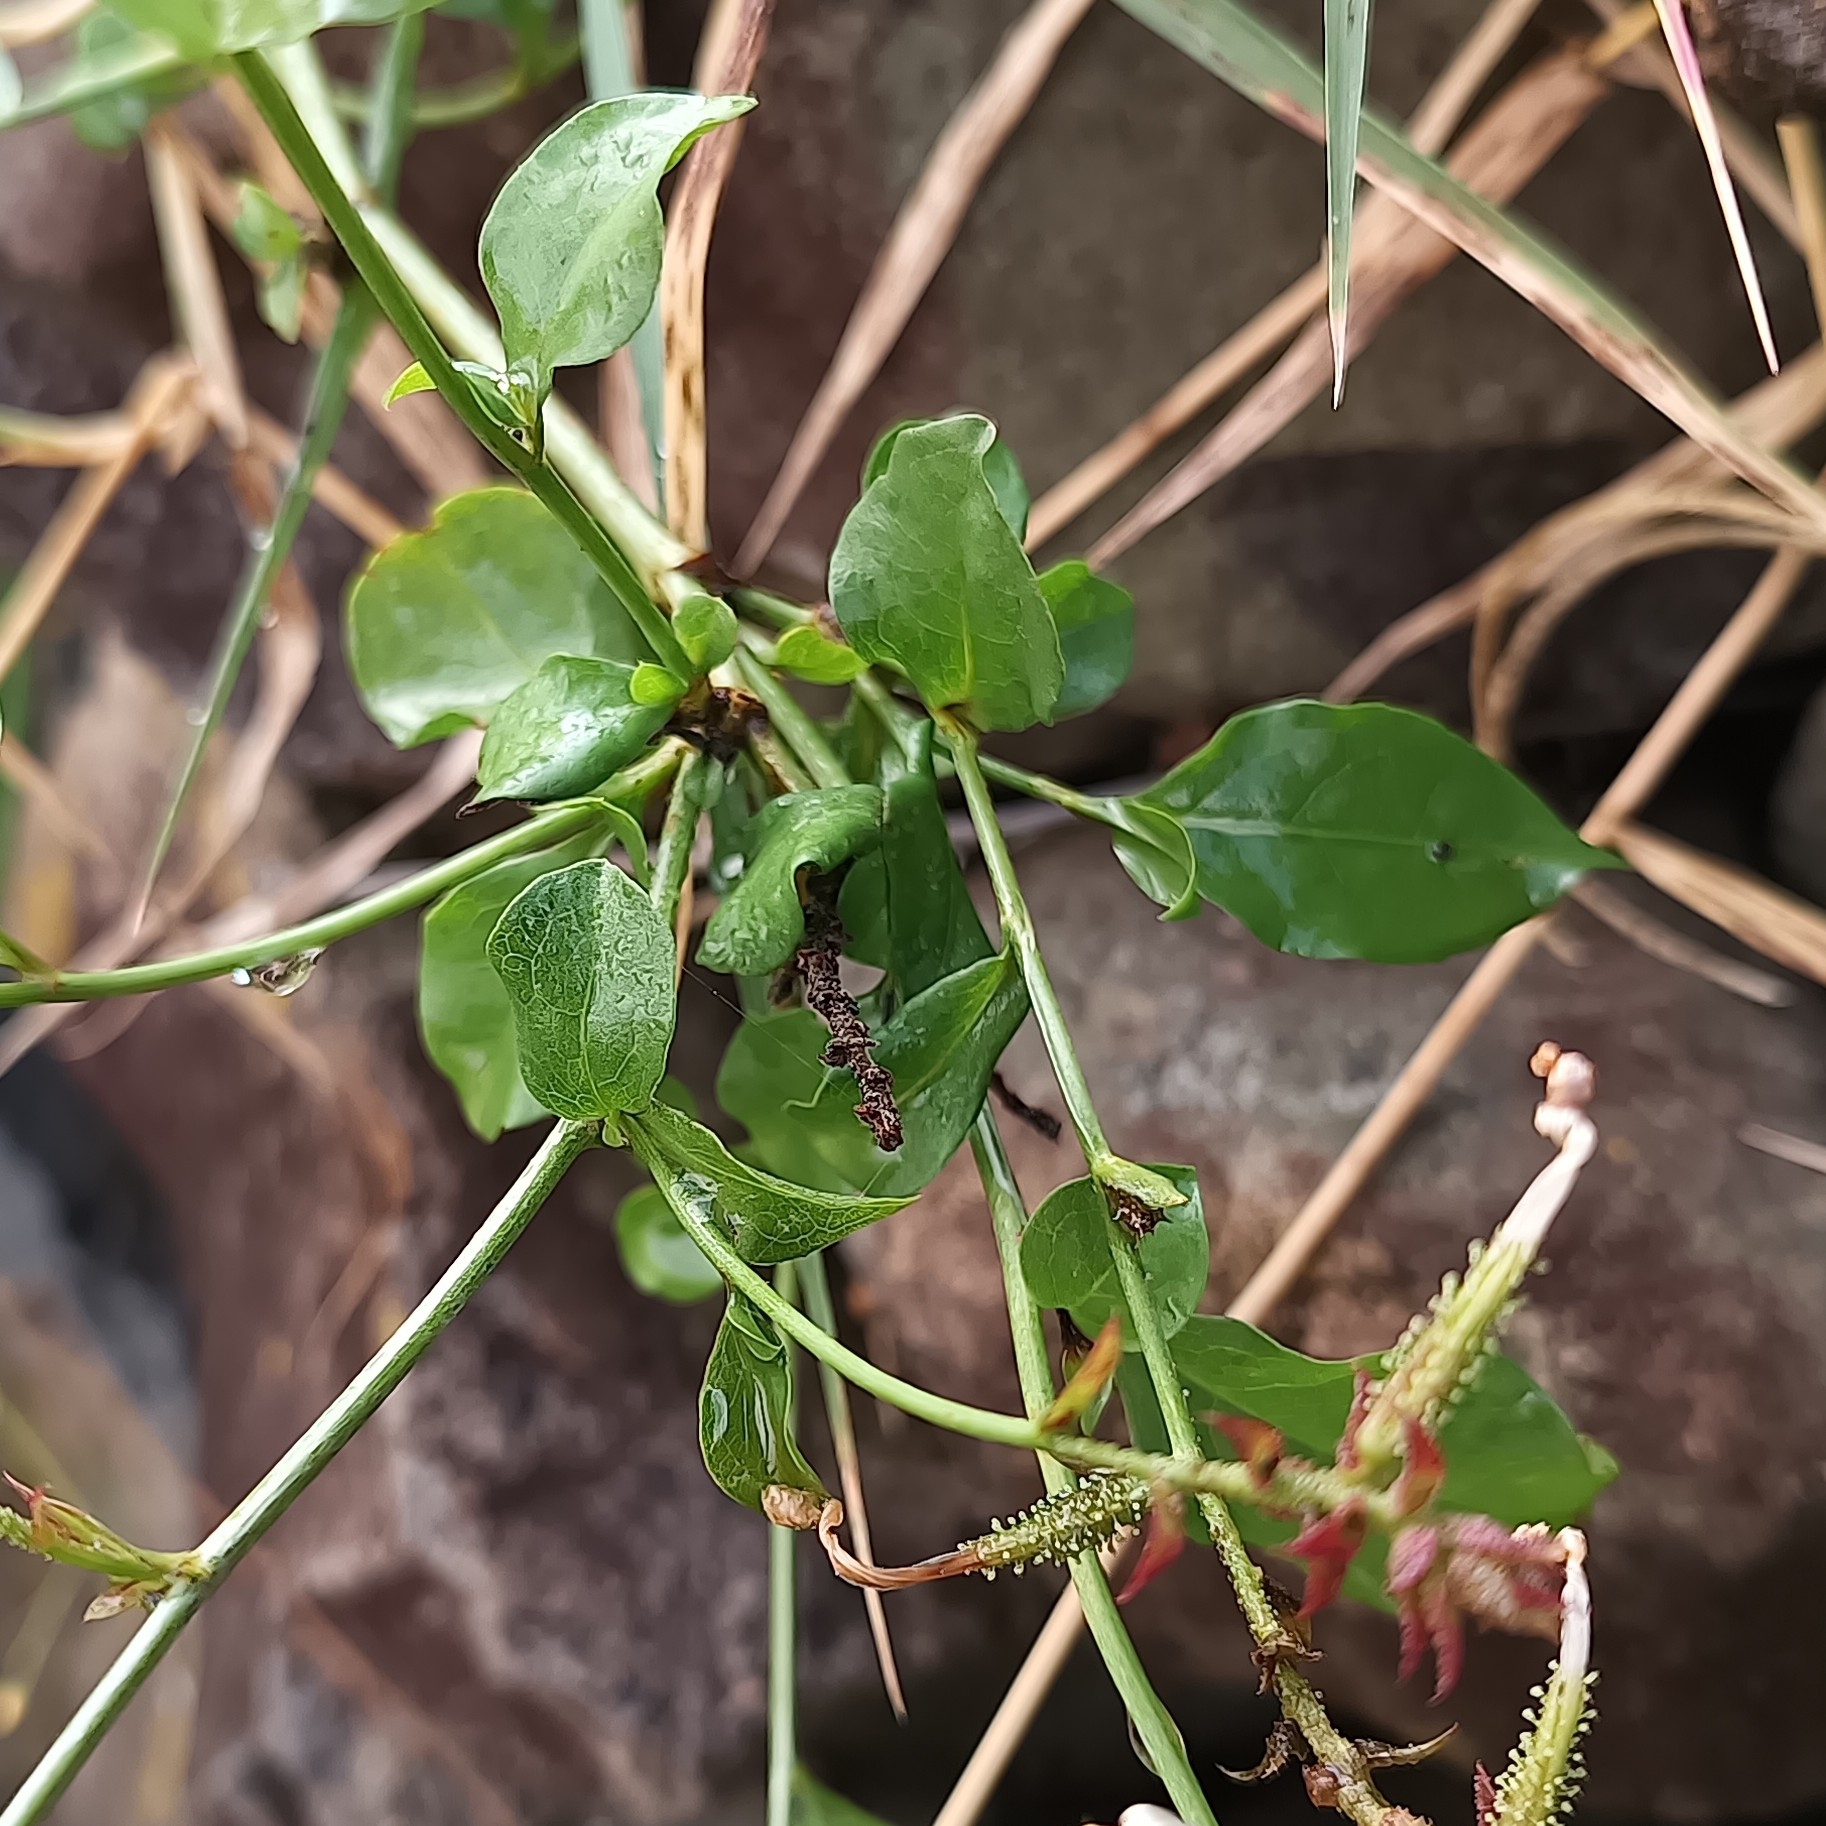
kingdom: Plantae
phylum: Tracheophyta
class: Magnoliopsida
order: Caryophyllales
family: Plumbaginaceae
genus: Plumbago
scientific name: Plumbago zeylanica
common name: Doctorbush
